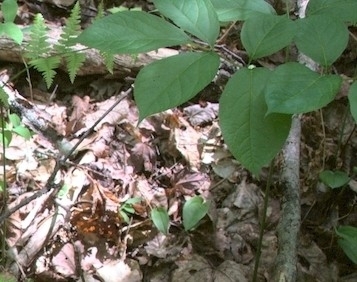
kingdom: Plantae
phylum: Tracheophyta
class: Magnoliopsida
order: Apiales
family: Araliaceae
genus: Aralia
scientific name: Aralia nudicaulis
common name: Wild sarsaparilla
